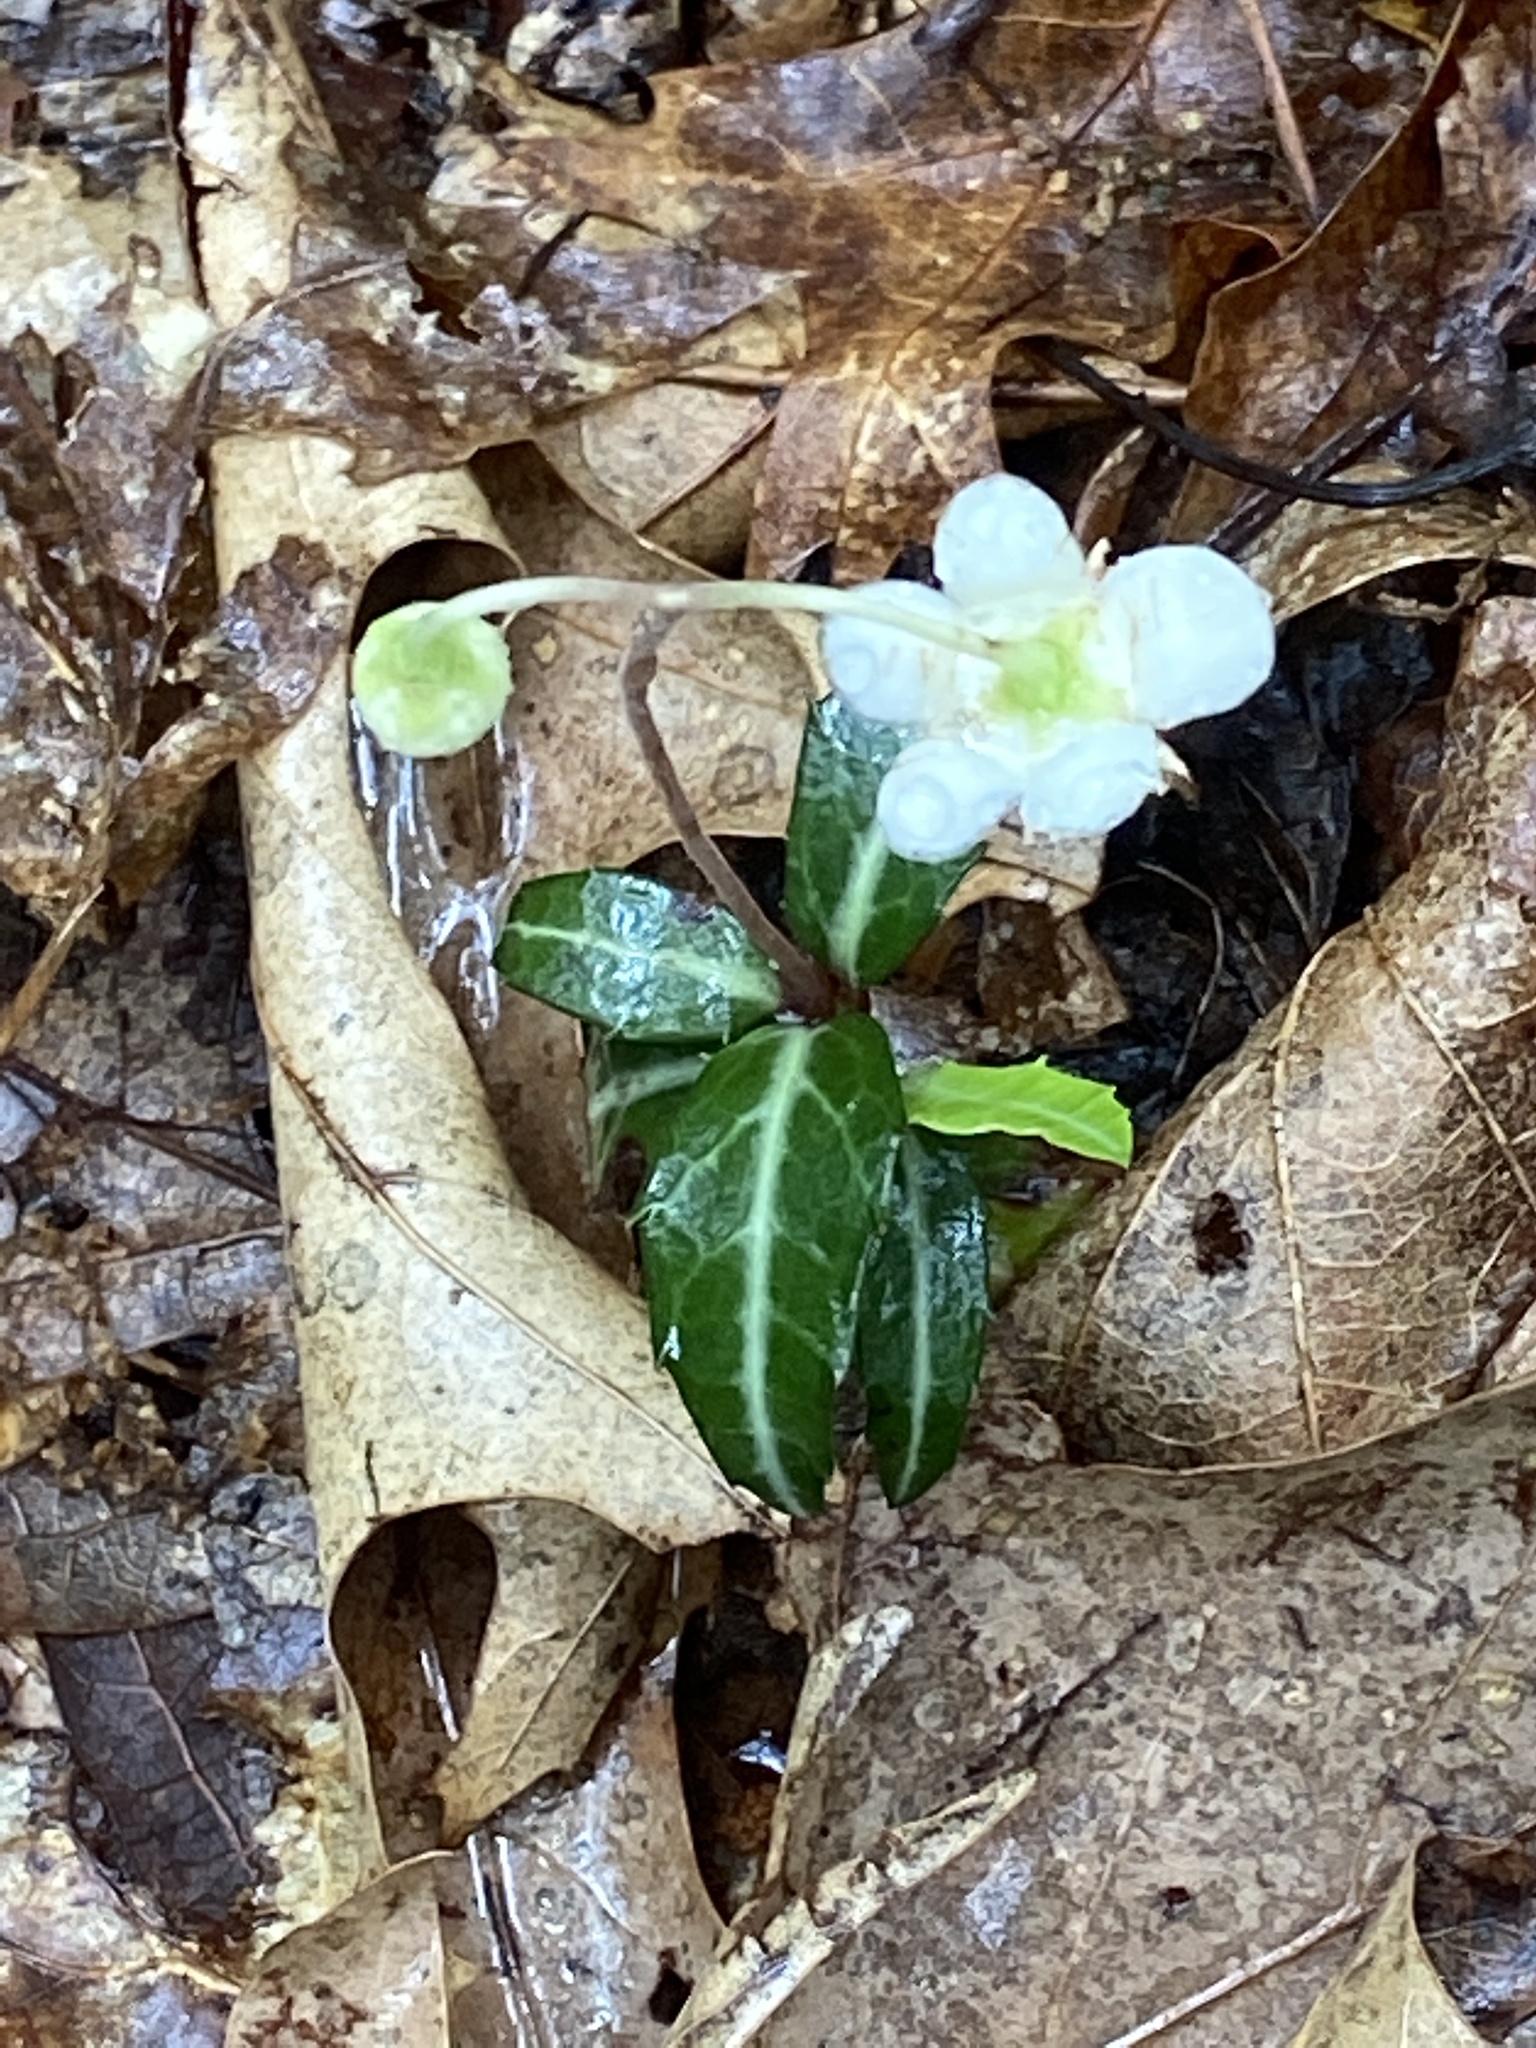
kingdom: Plantae
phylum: Tracheophyta
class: Magnoliopsida
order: Ericales
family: Ericaceae
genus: Chimaphila
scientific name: Chimaphila maculata
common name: Spotted pipsissewa
